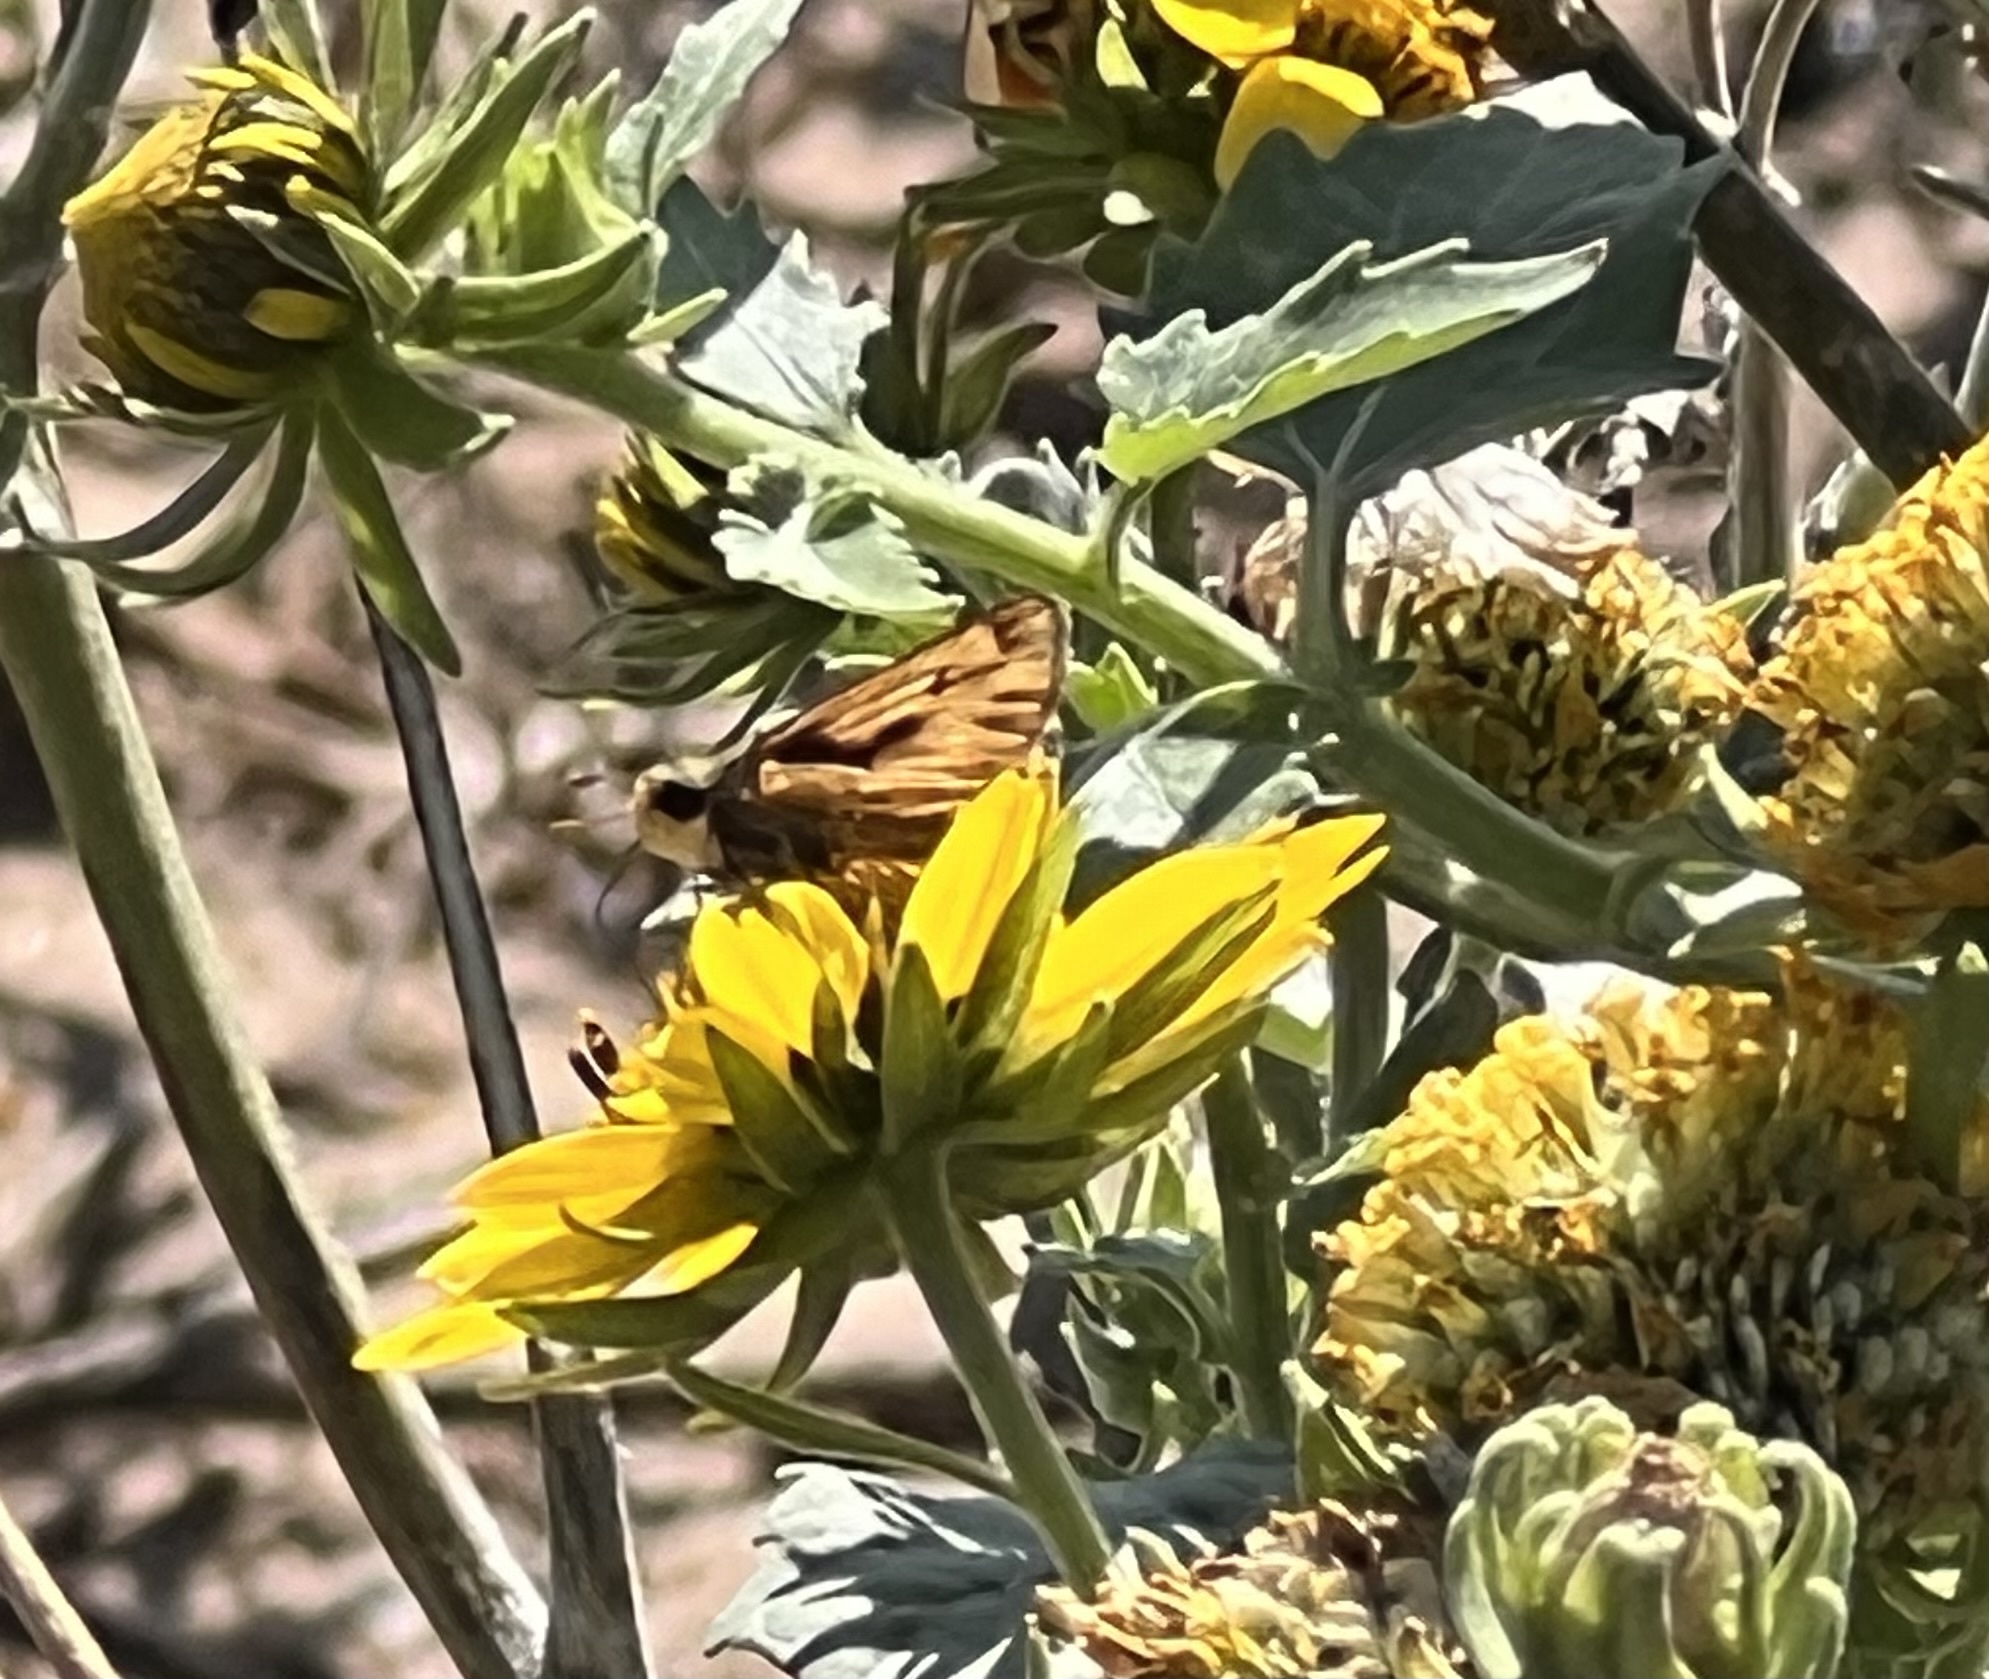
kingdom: Animalia
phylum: Arthropoda
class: Insecta
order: Lepidoptera
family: Hesperiidae
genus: Hylephila
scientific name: Hylephila phyleus
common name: Fiery skipper
